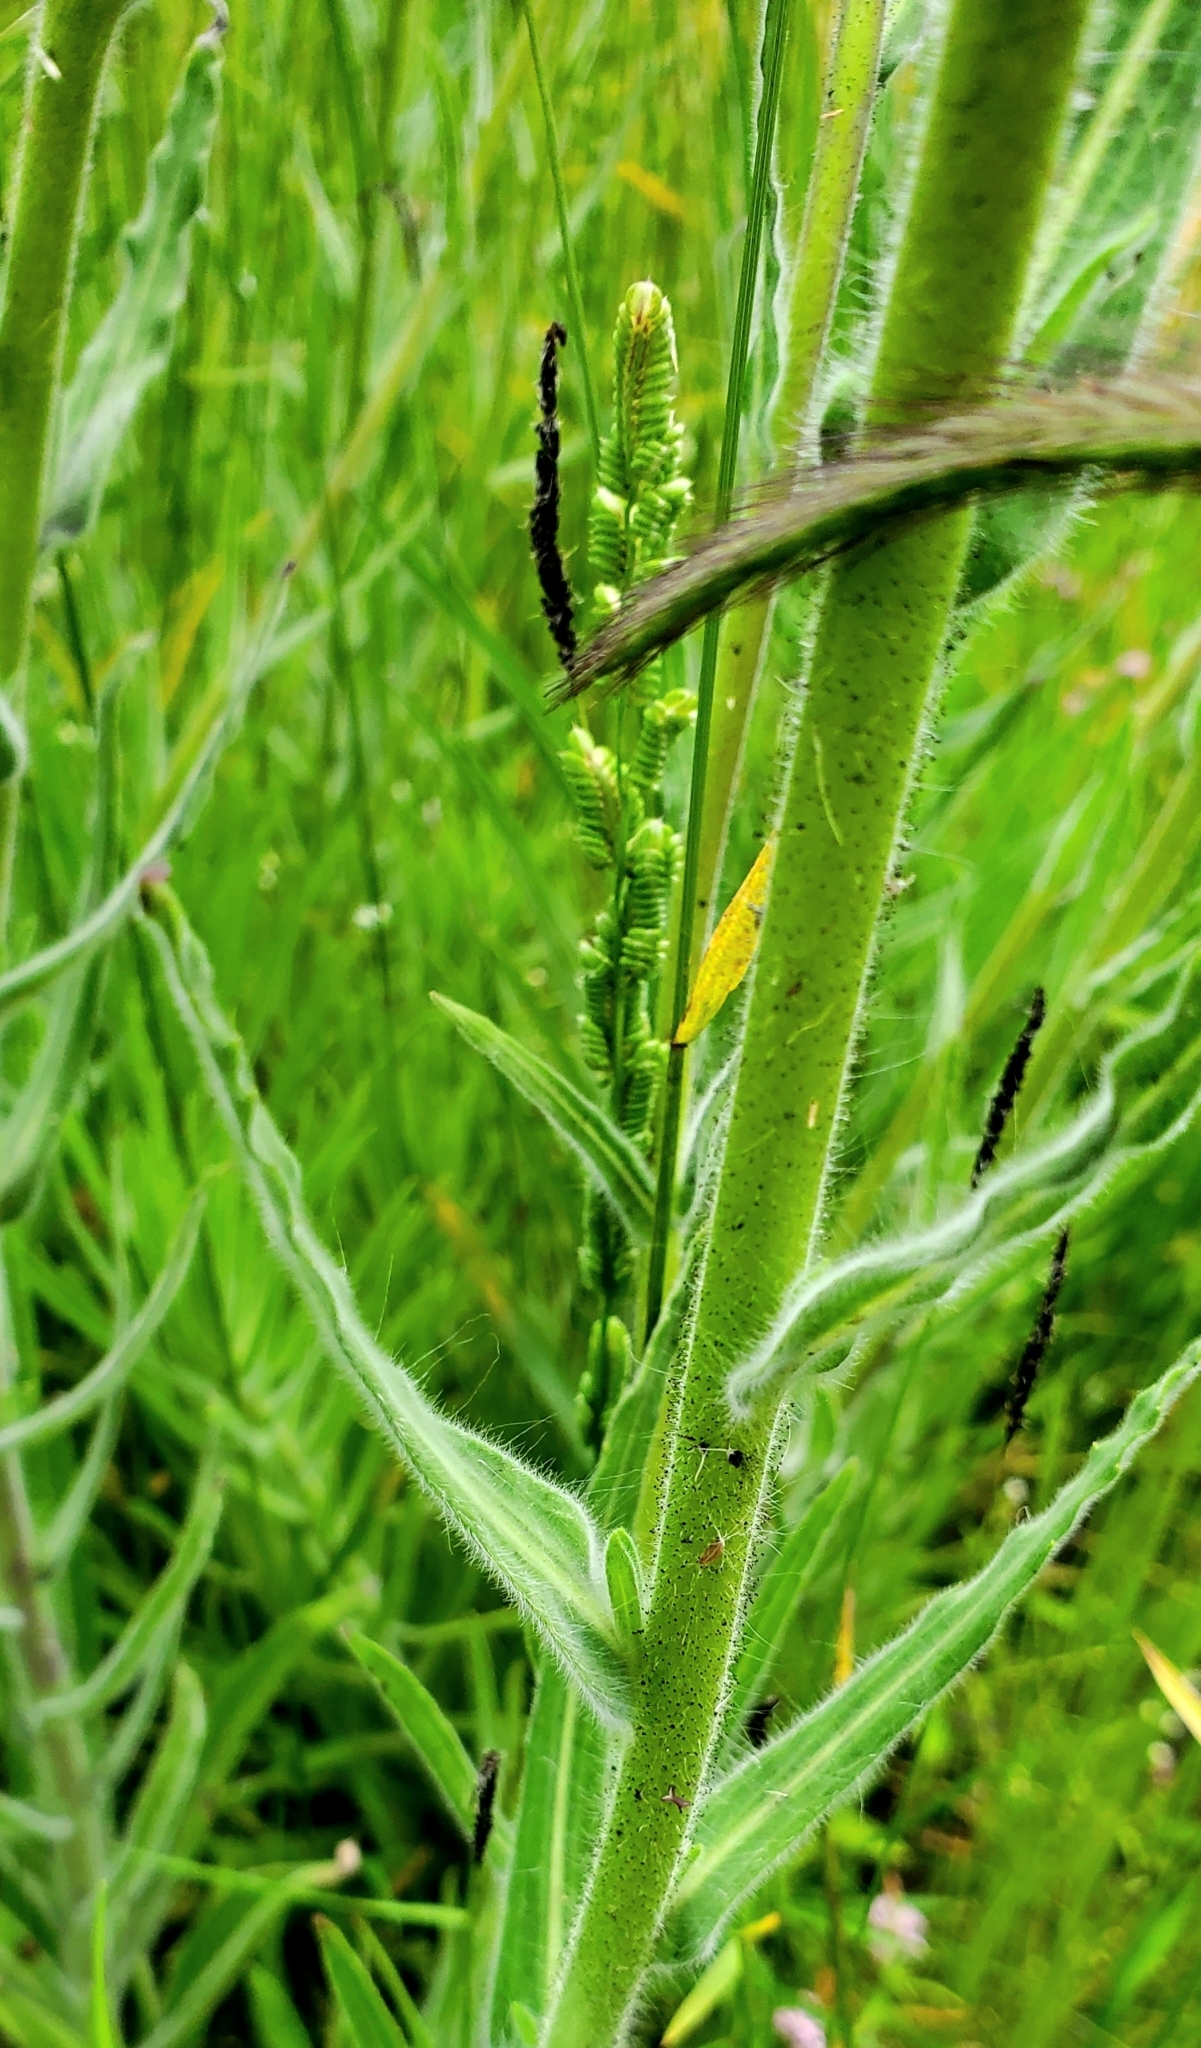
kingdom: Plantae
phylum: Tracheophyta
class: Magnoliopsida
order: Asterales
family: Asteraceae
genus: Madia
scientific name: Madia elegans
